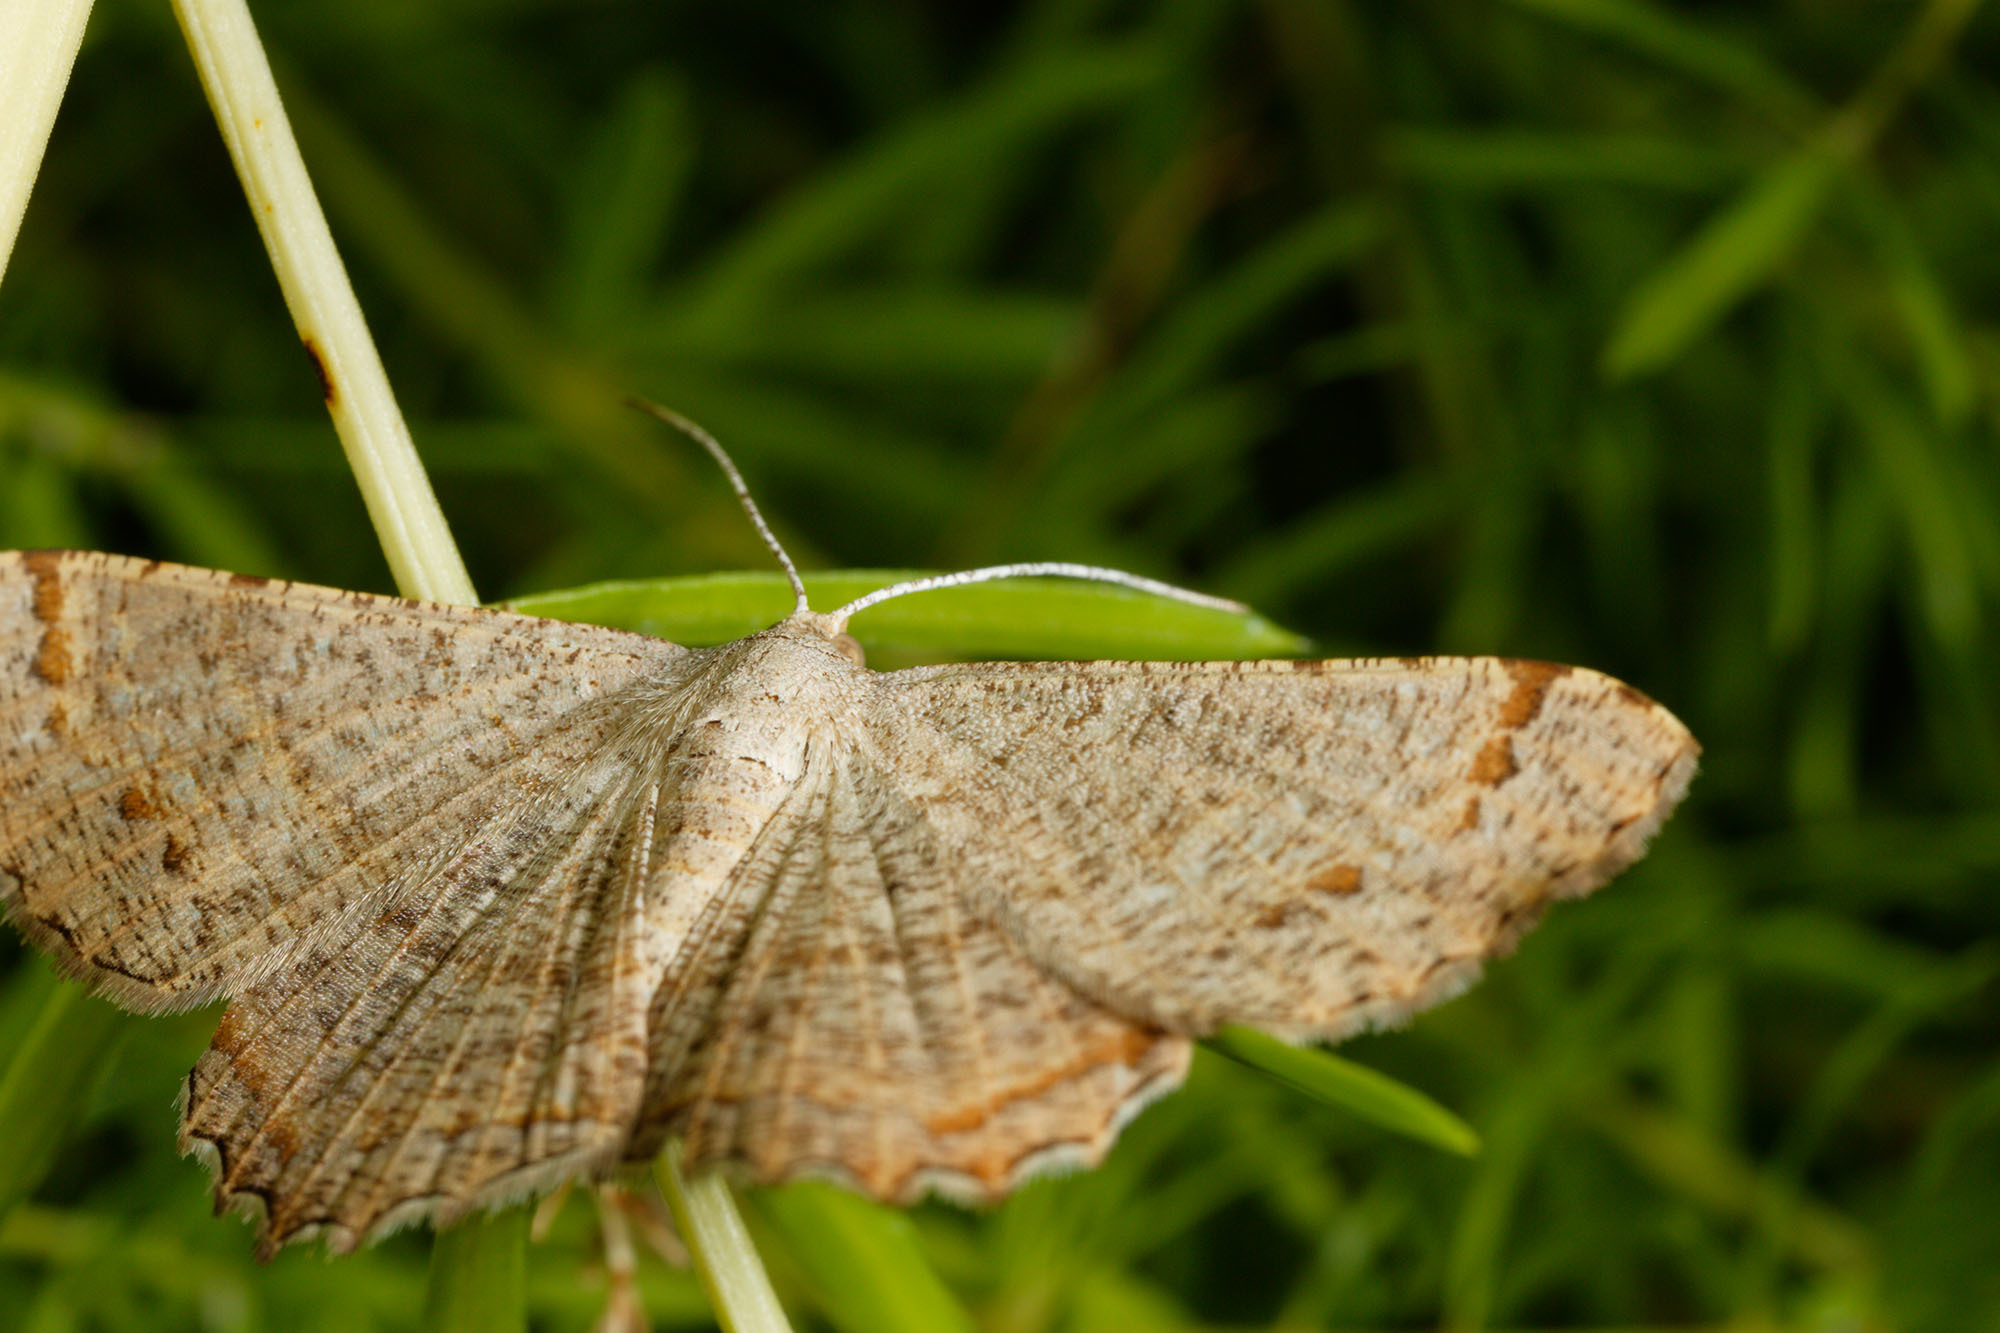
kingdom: Animalia
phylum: Arthropoda
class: Insecta
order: Lepidoptera
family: Geometridae
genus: Oxymacaria
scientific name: Oxymacaria odontias
